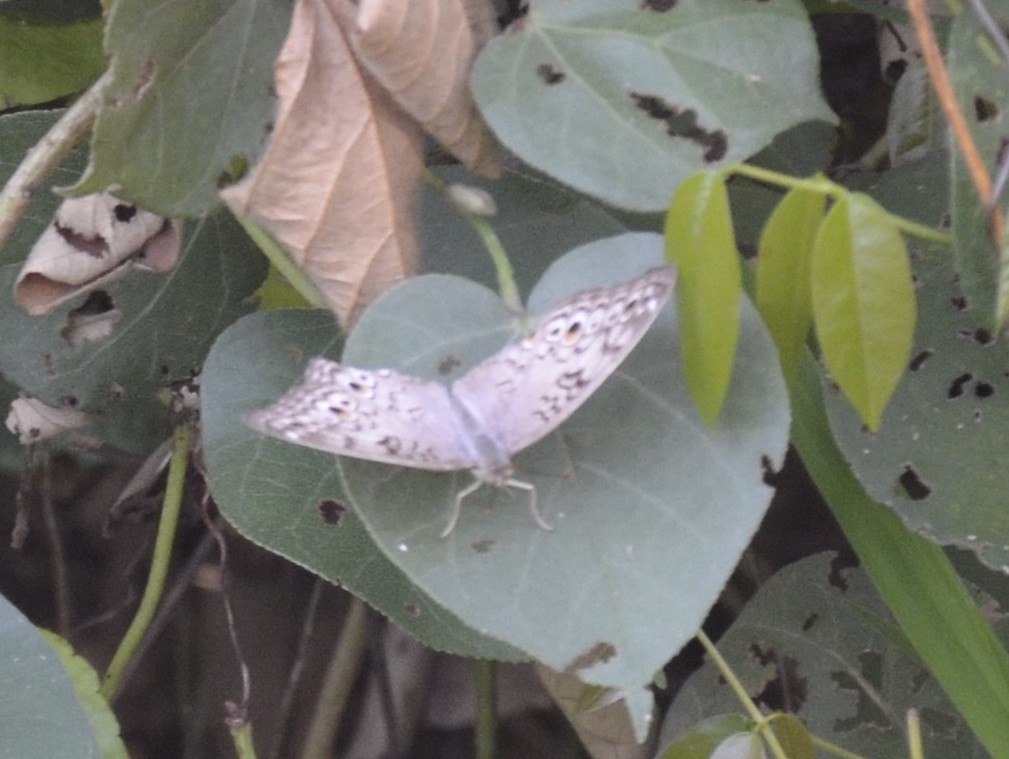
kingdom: Animalia
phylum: Arthropoda
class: Insecta
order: Lepidoptera
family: Nymphalidae
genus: Junonia
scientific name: Junonia atlites
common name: Grey pansy
